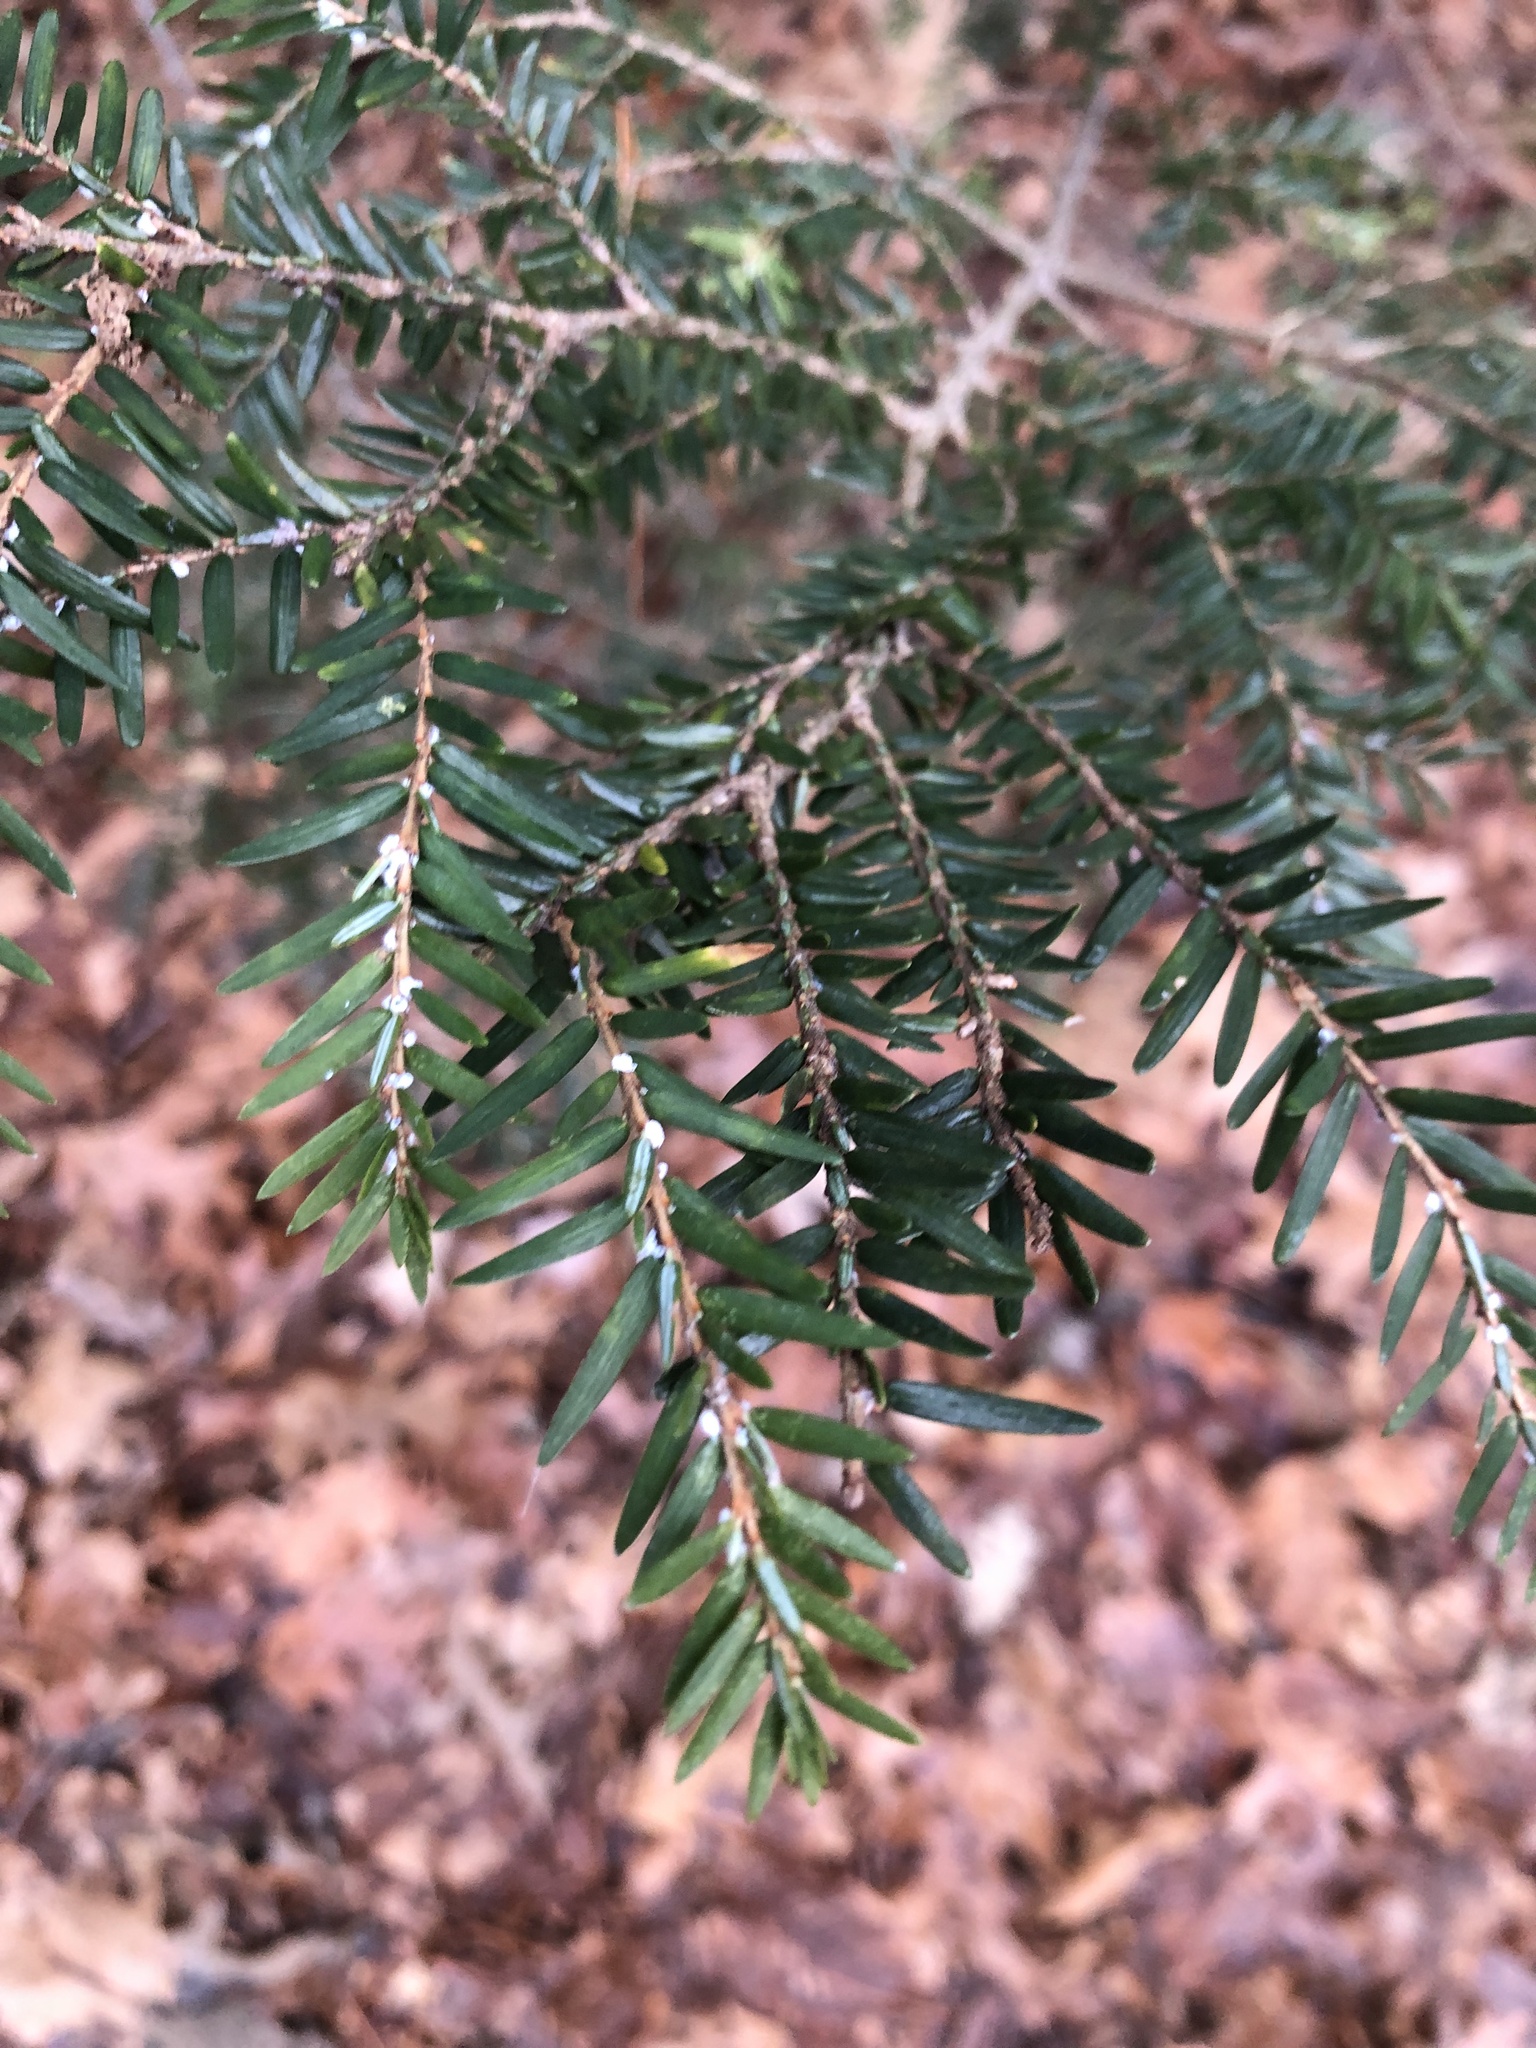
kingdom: Animalia
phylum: Arthropoda
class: Insecta
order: Hemiptera
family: Adelgidae
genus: Adelges
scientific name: Adelges tsugae
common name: Hemlock woolly adelgid
